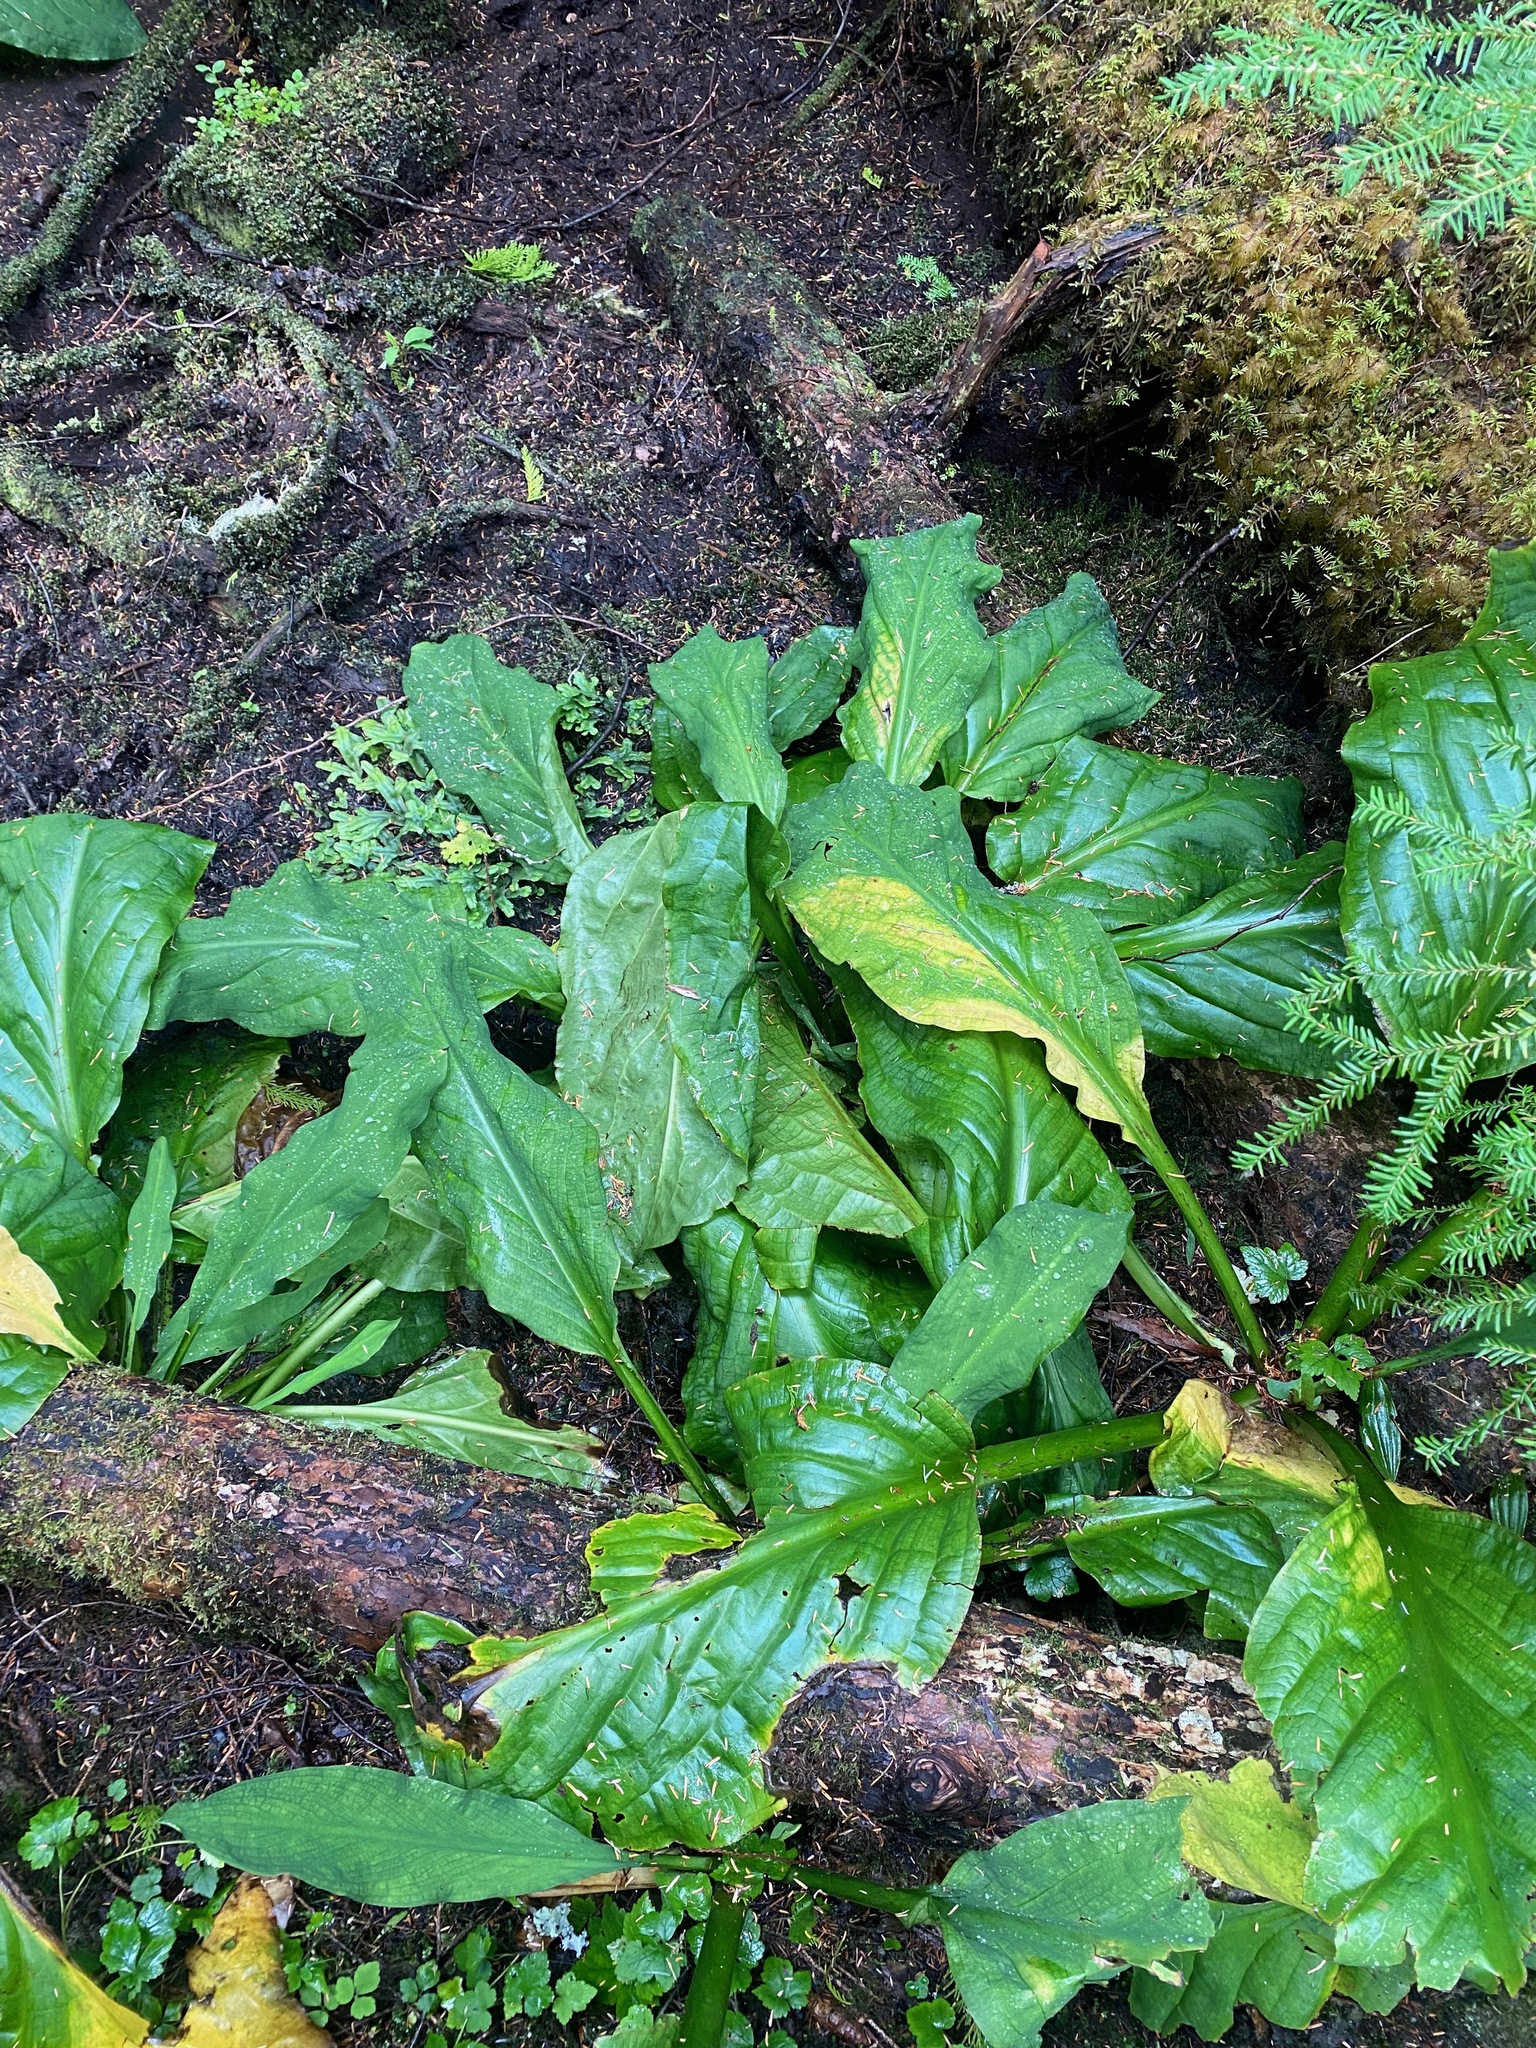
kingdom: Plantae
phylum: Tracheophyta
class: Liliopsida
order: Alismatales
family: Araceae
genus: Lysichiton
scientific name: Lysichiton americanus
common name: American skunk cabbage
